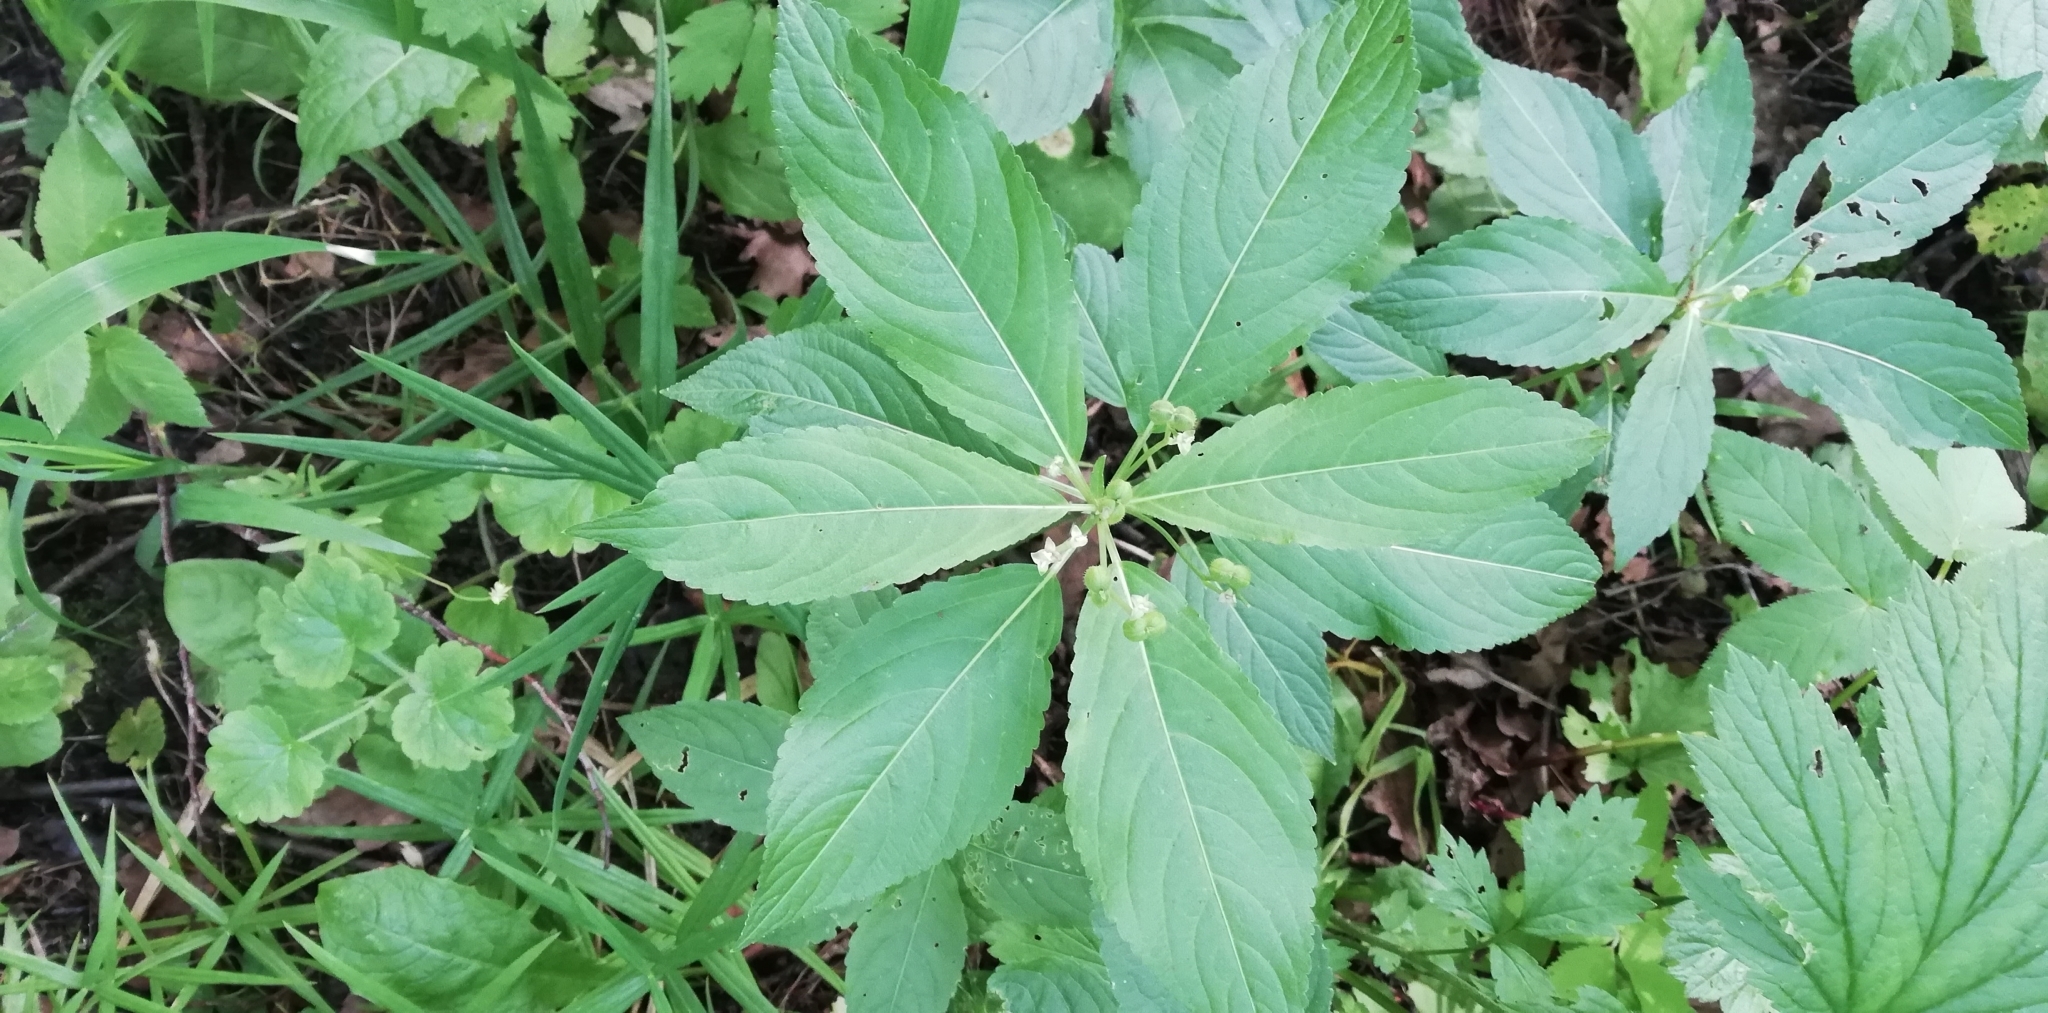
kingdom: Plantae
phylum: Tracheophyta
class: Magnoliopsida
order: Malpighiales
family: Euphorbiaceae
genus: Mercurialis
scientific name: Mercurialis perennis
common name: Dog mercury
